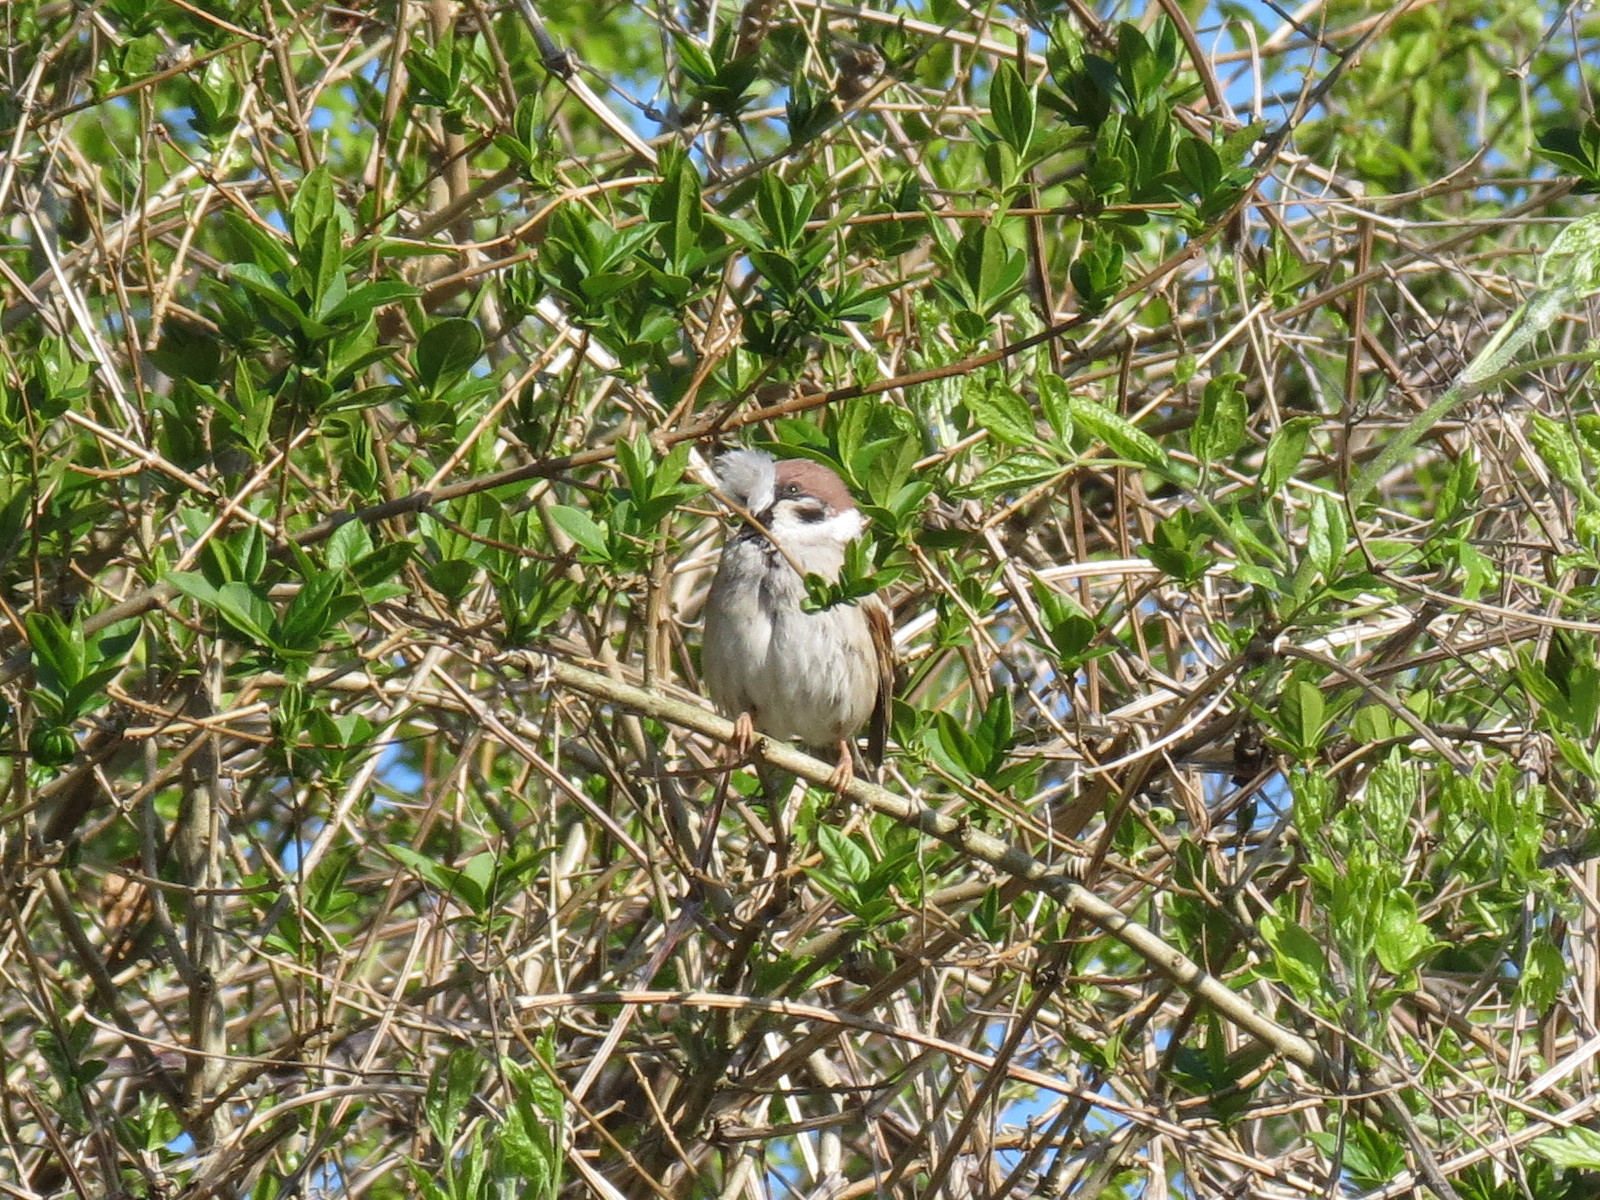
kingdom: Animalia
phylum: Chordata
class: Aves
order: Passeriformes
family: Passeridae
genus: Passer
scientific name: Passer montanus
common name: Eurasian tree sparrow
